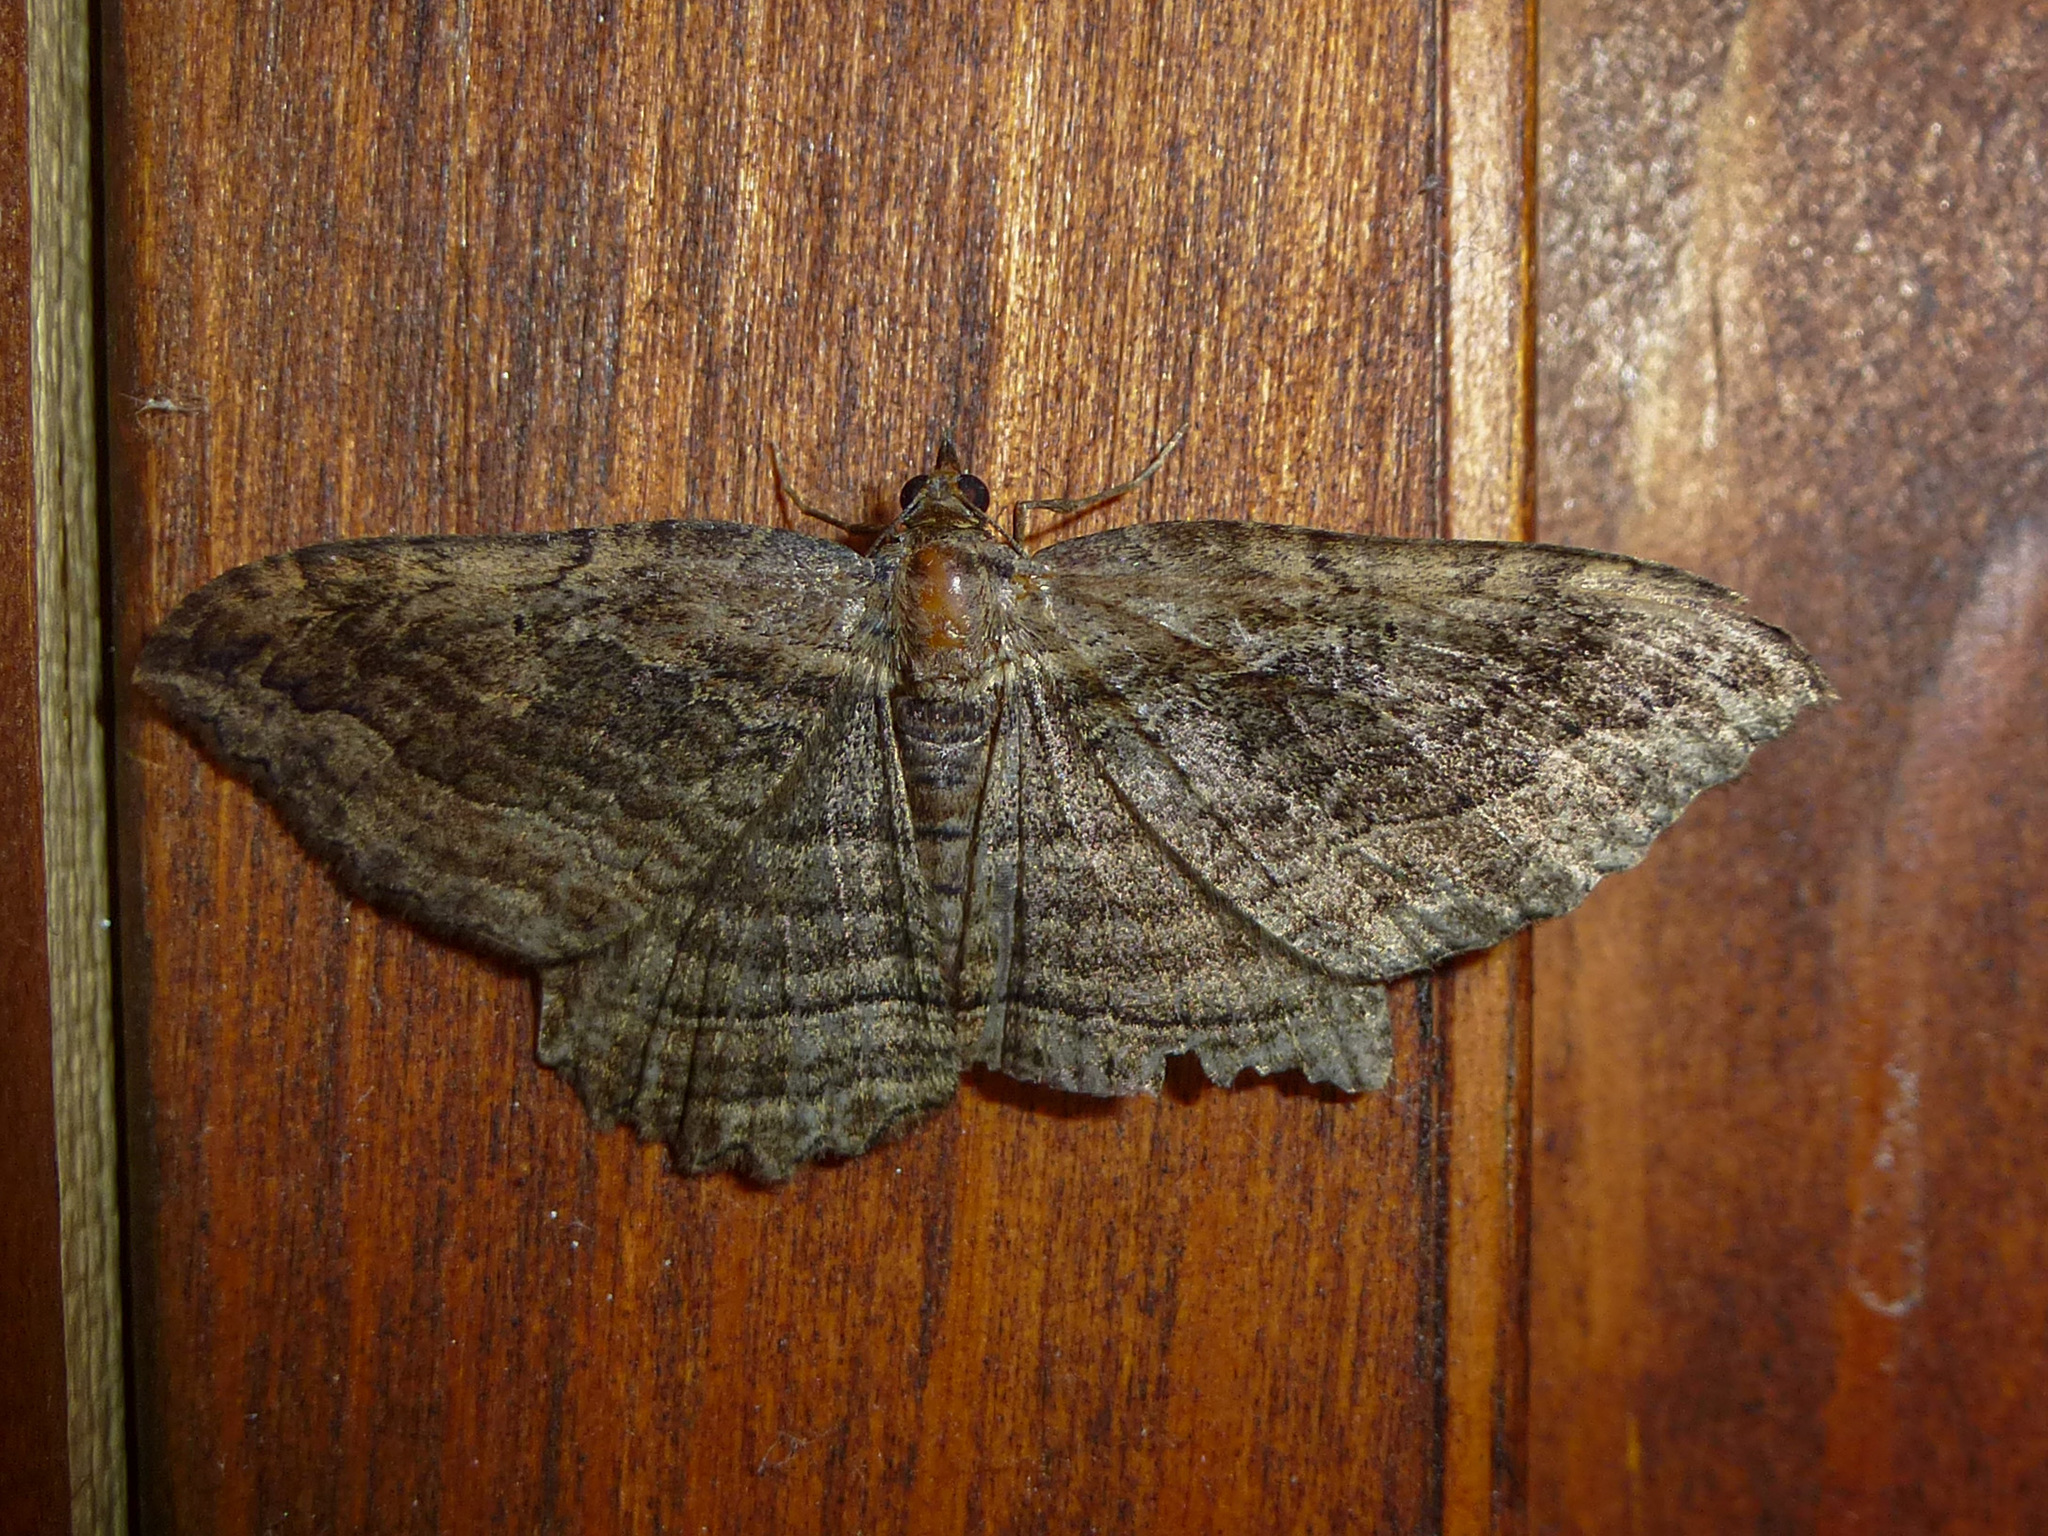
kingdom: Animalia
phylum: Arthropoda
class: Insecta
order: Lepidoptera
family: Geometridae
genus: Philereme
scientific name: Philereme transversata
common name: Dark umber
